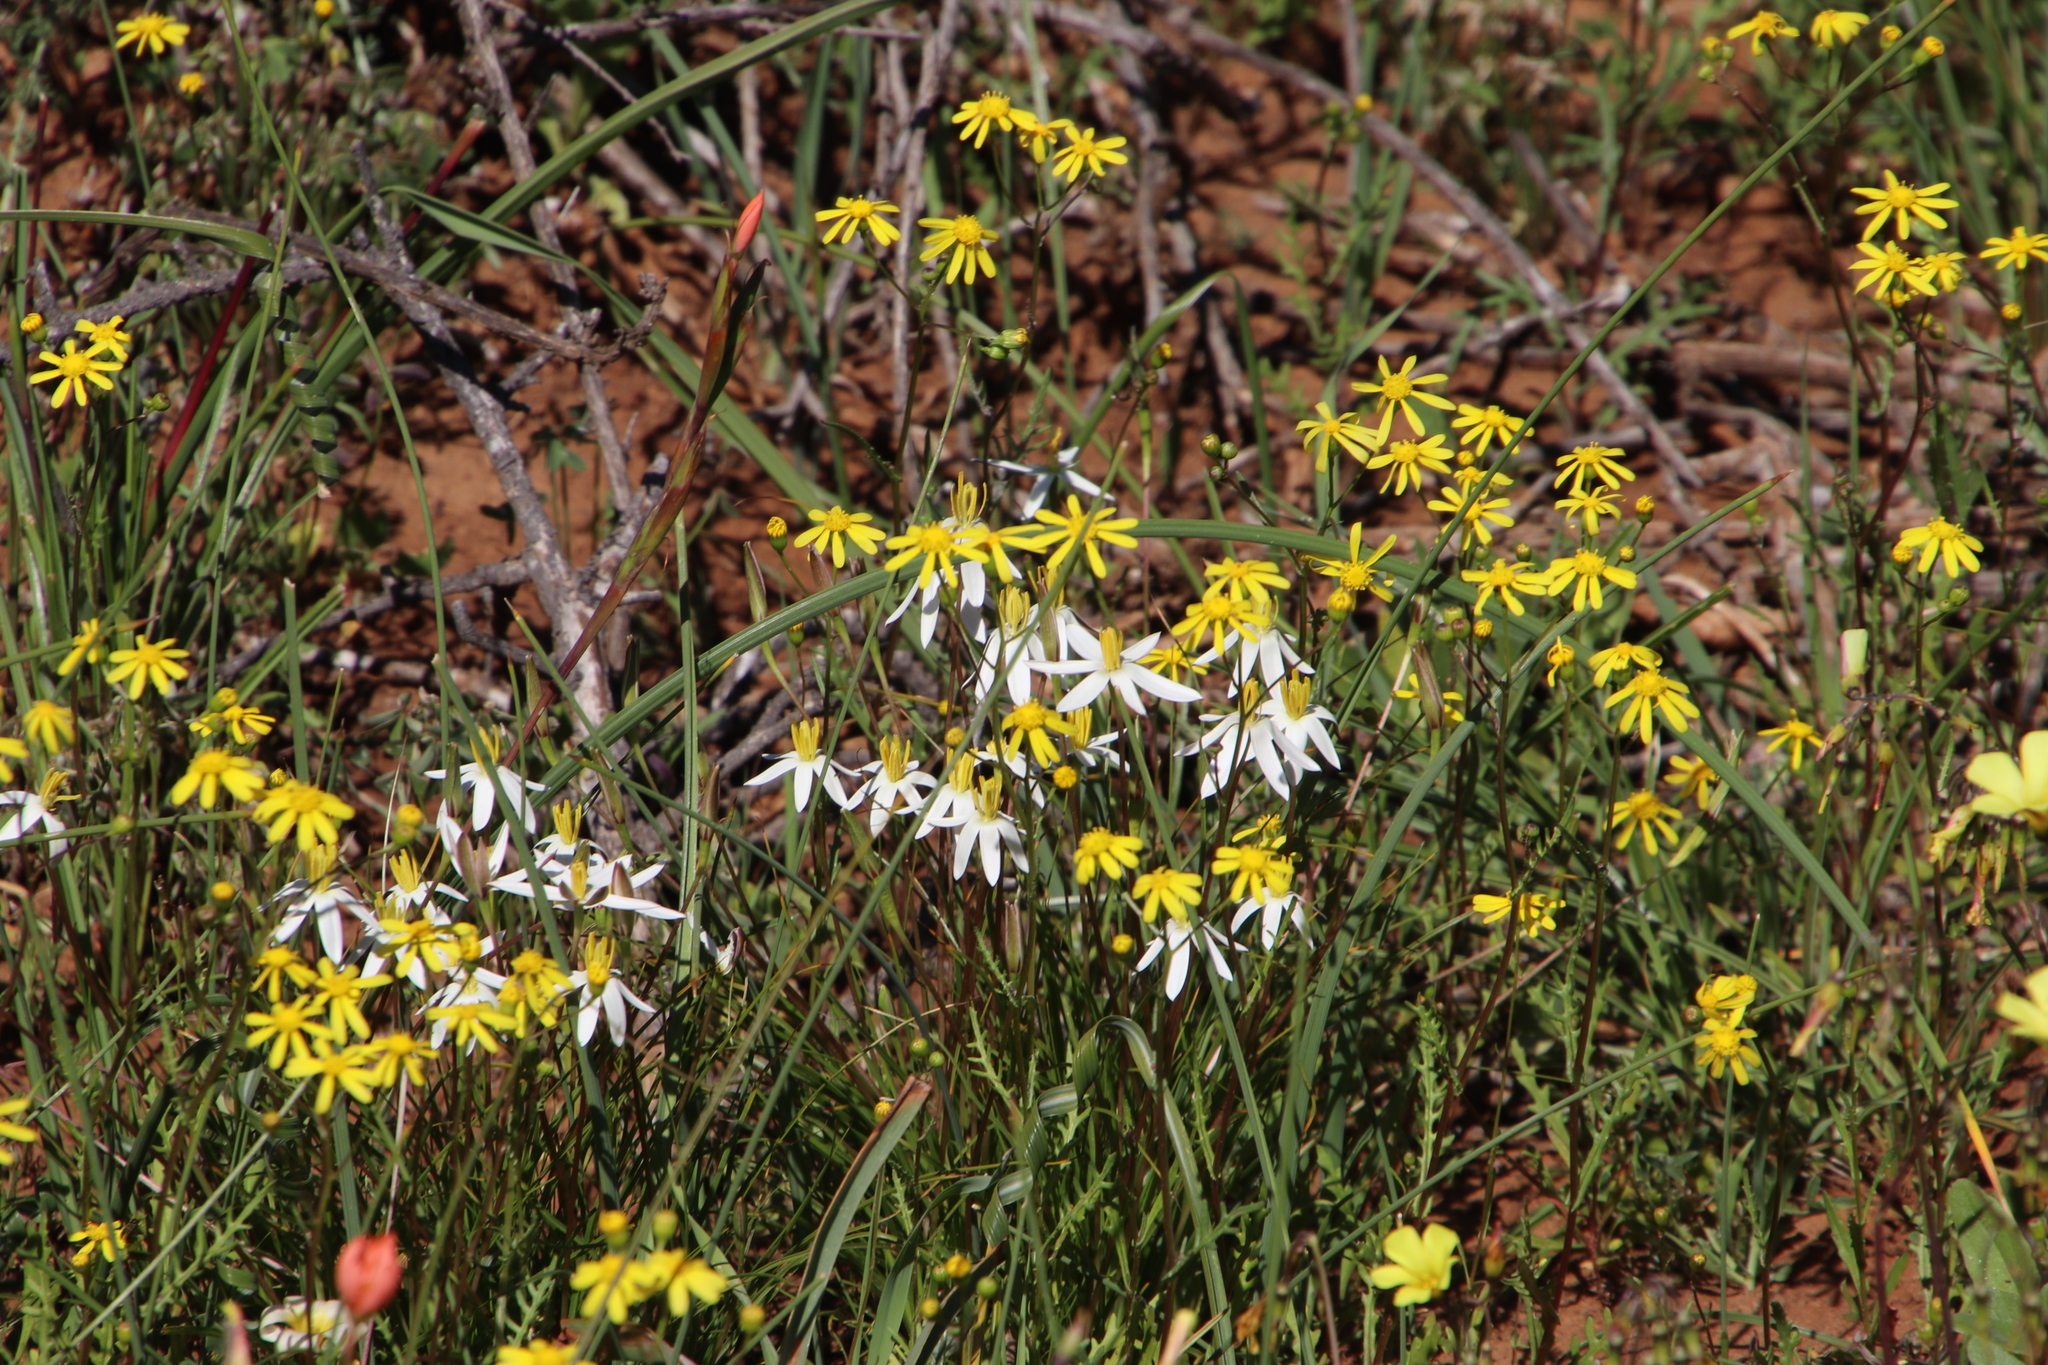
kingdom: Plantae
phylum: Tracheophyta
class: Magnoliopsida
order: Asterales
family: Asteraceae
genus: Senecio
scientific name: Senecio abruptus
